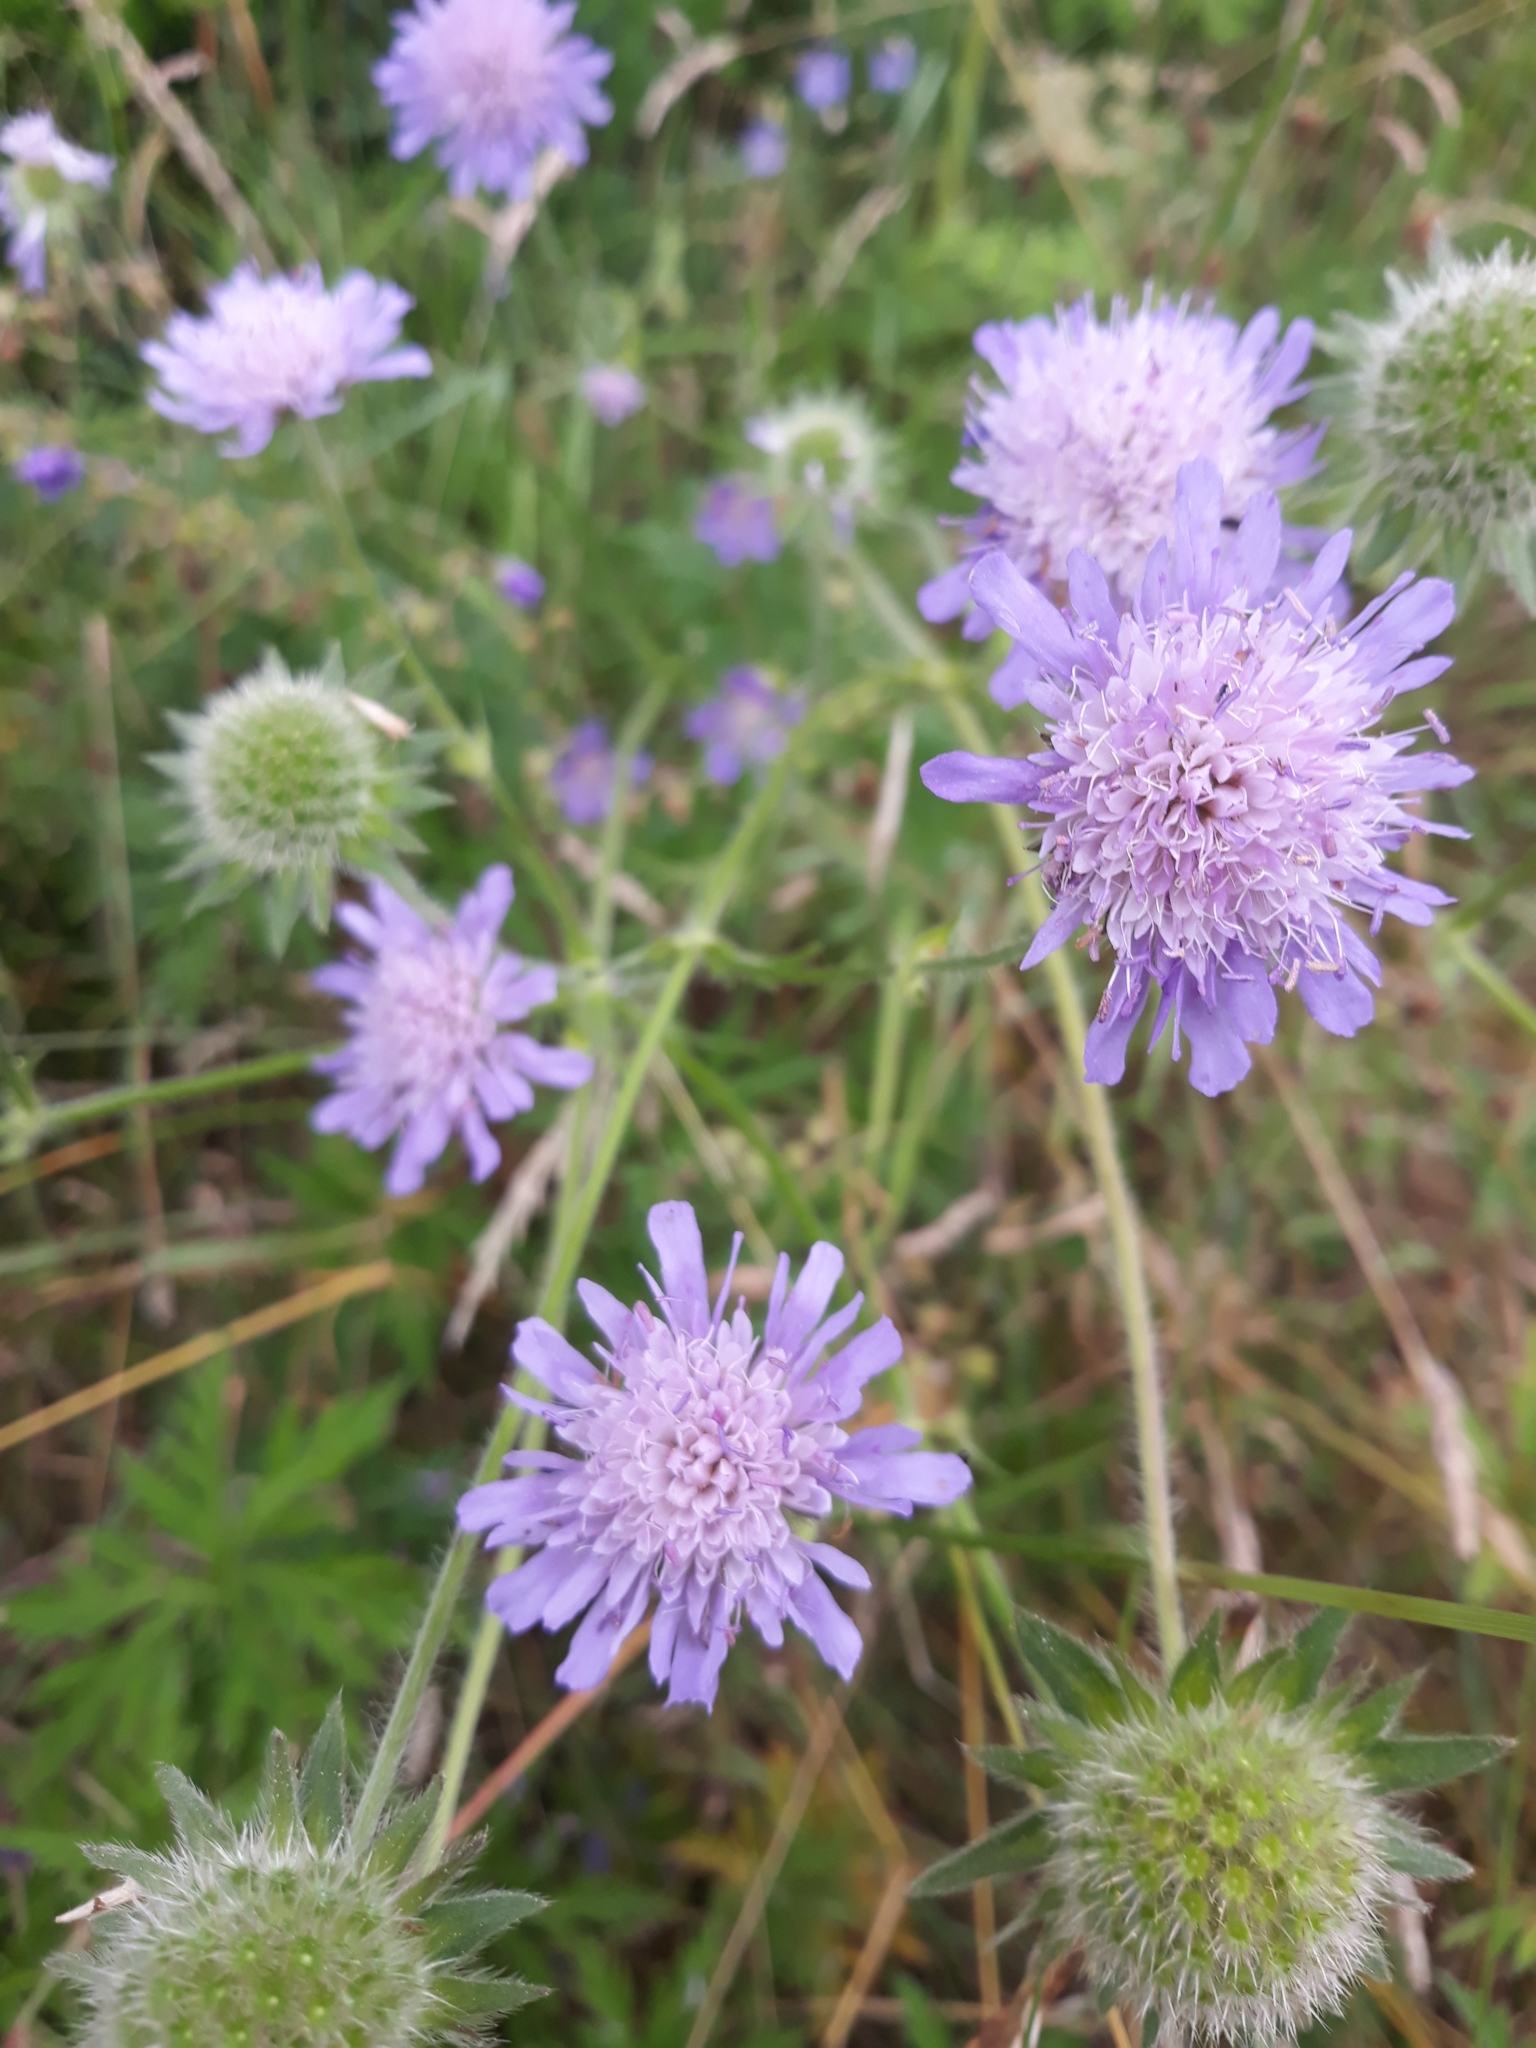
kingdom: Plantae
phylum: Tracheophyta
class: Magnoliopsida
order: Dipsacales
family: Caprifoliaceae
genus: Knautia
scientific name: Knautia arvensis
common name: Field scabiosa
